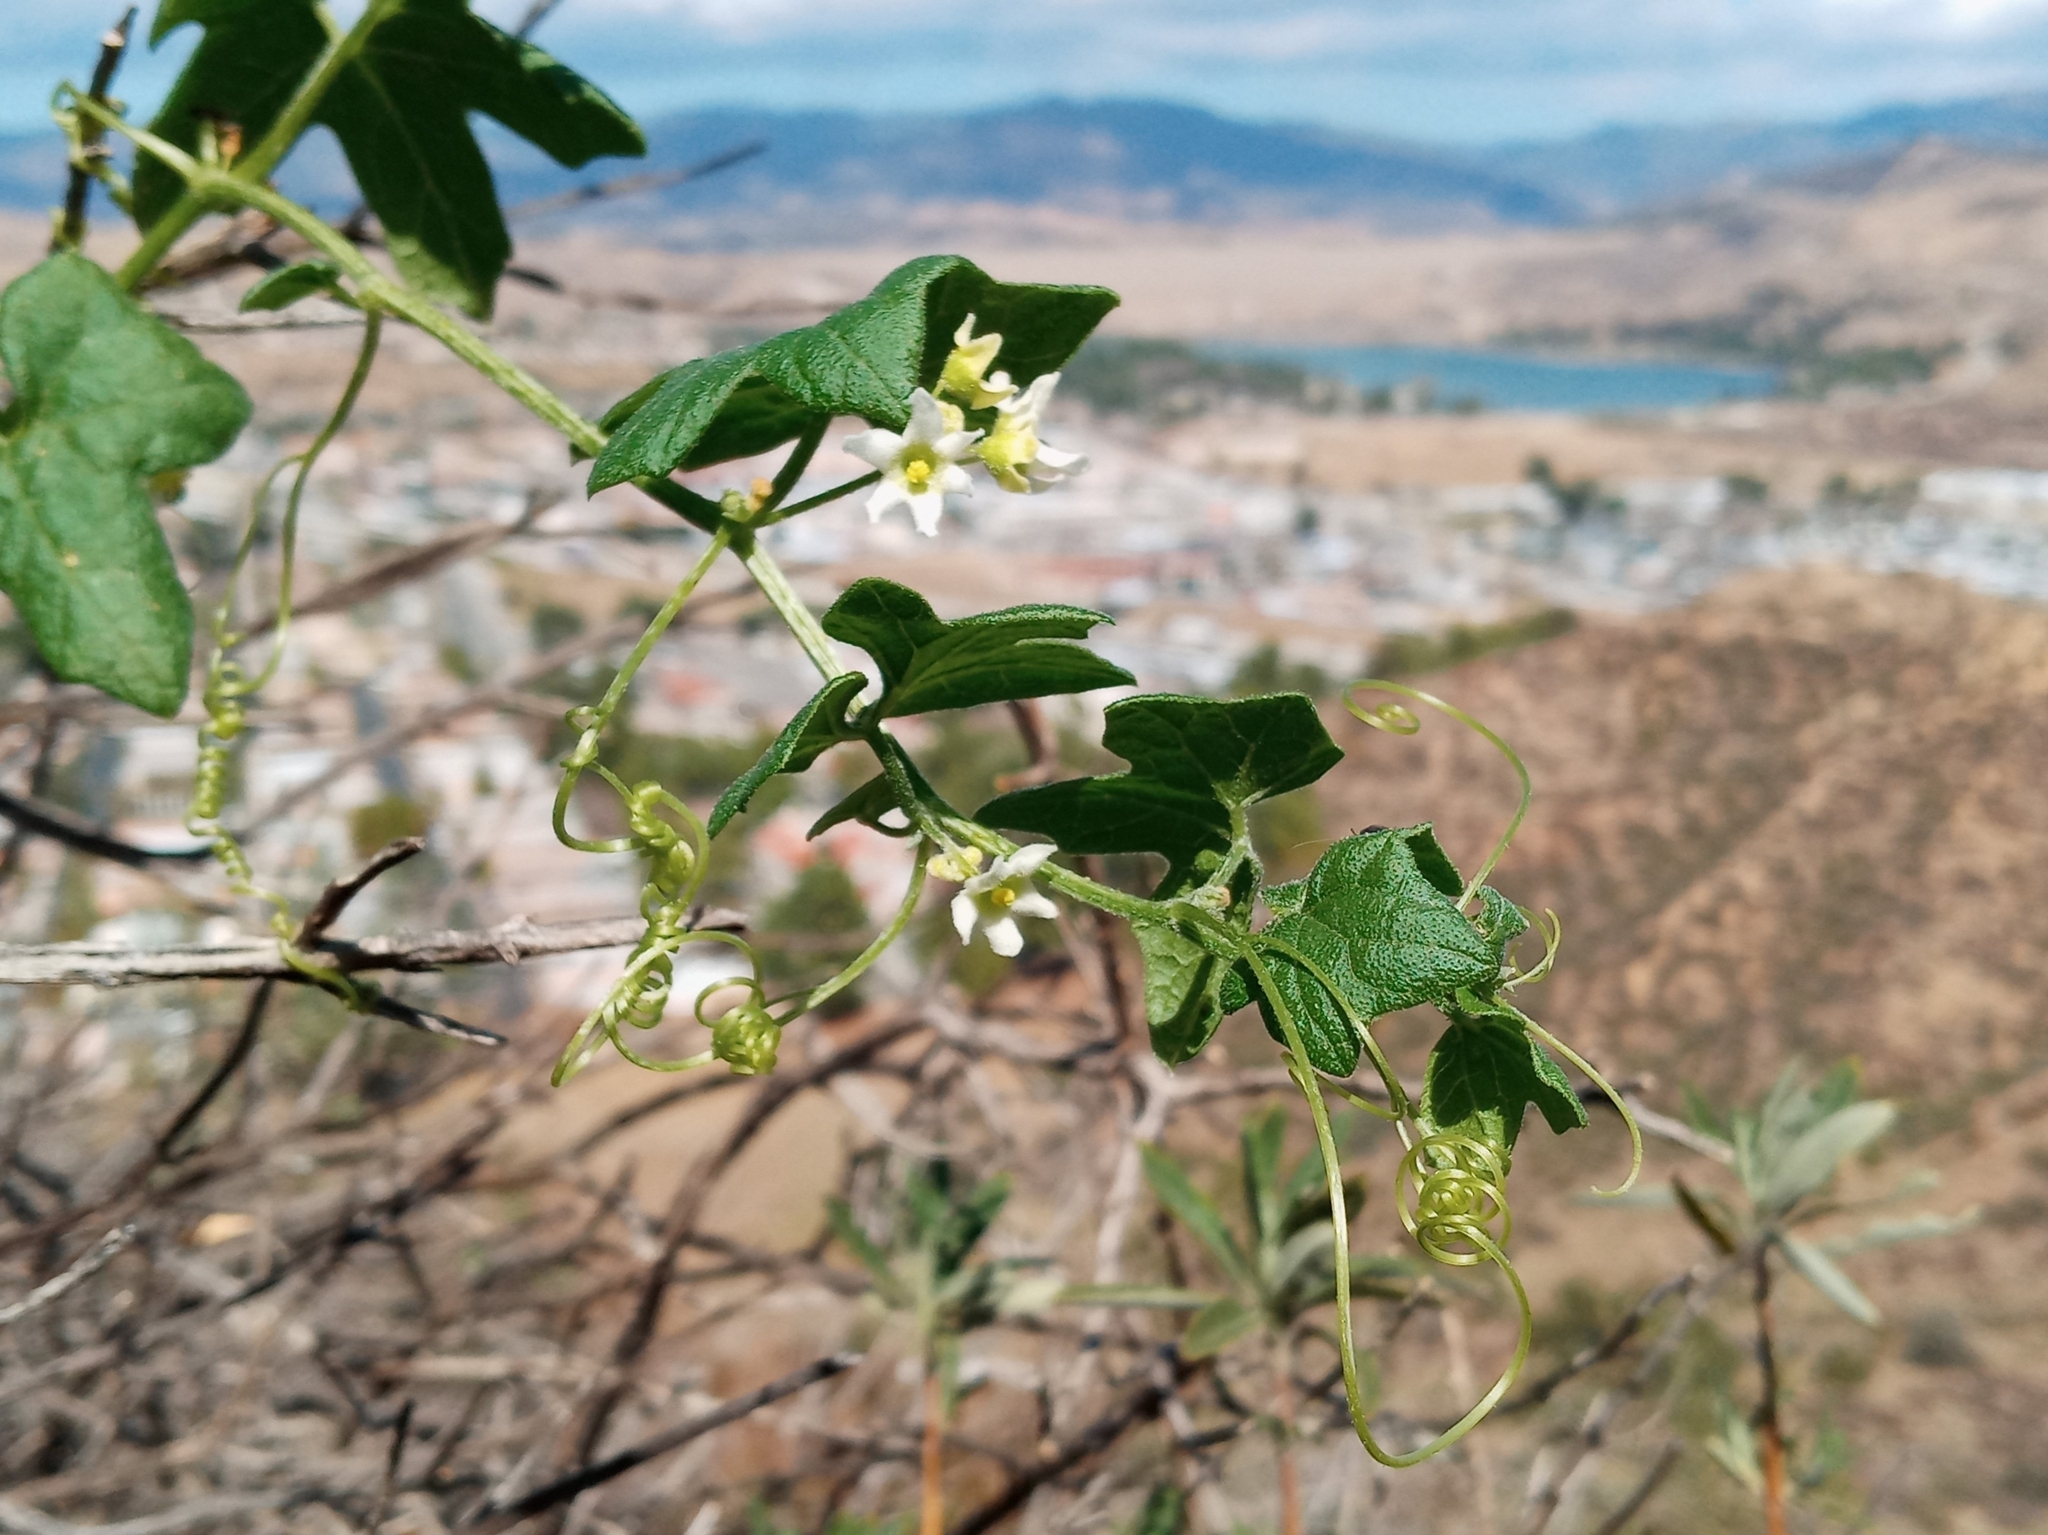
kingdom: Plantae
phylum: Tracheophyta
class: Magnoliopsida
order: Cucurbitales
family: Cucurbitaceae
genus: Marah
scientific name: Marah macrocarpa
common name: Cucamonga manroot
